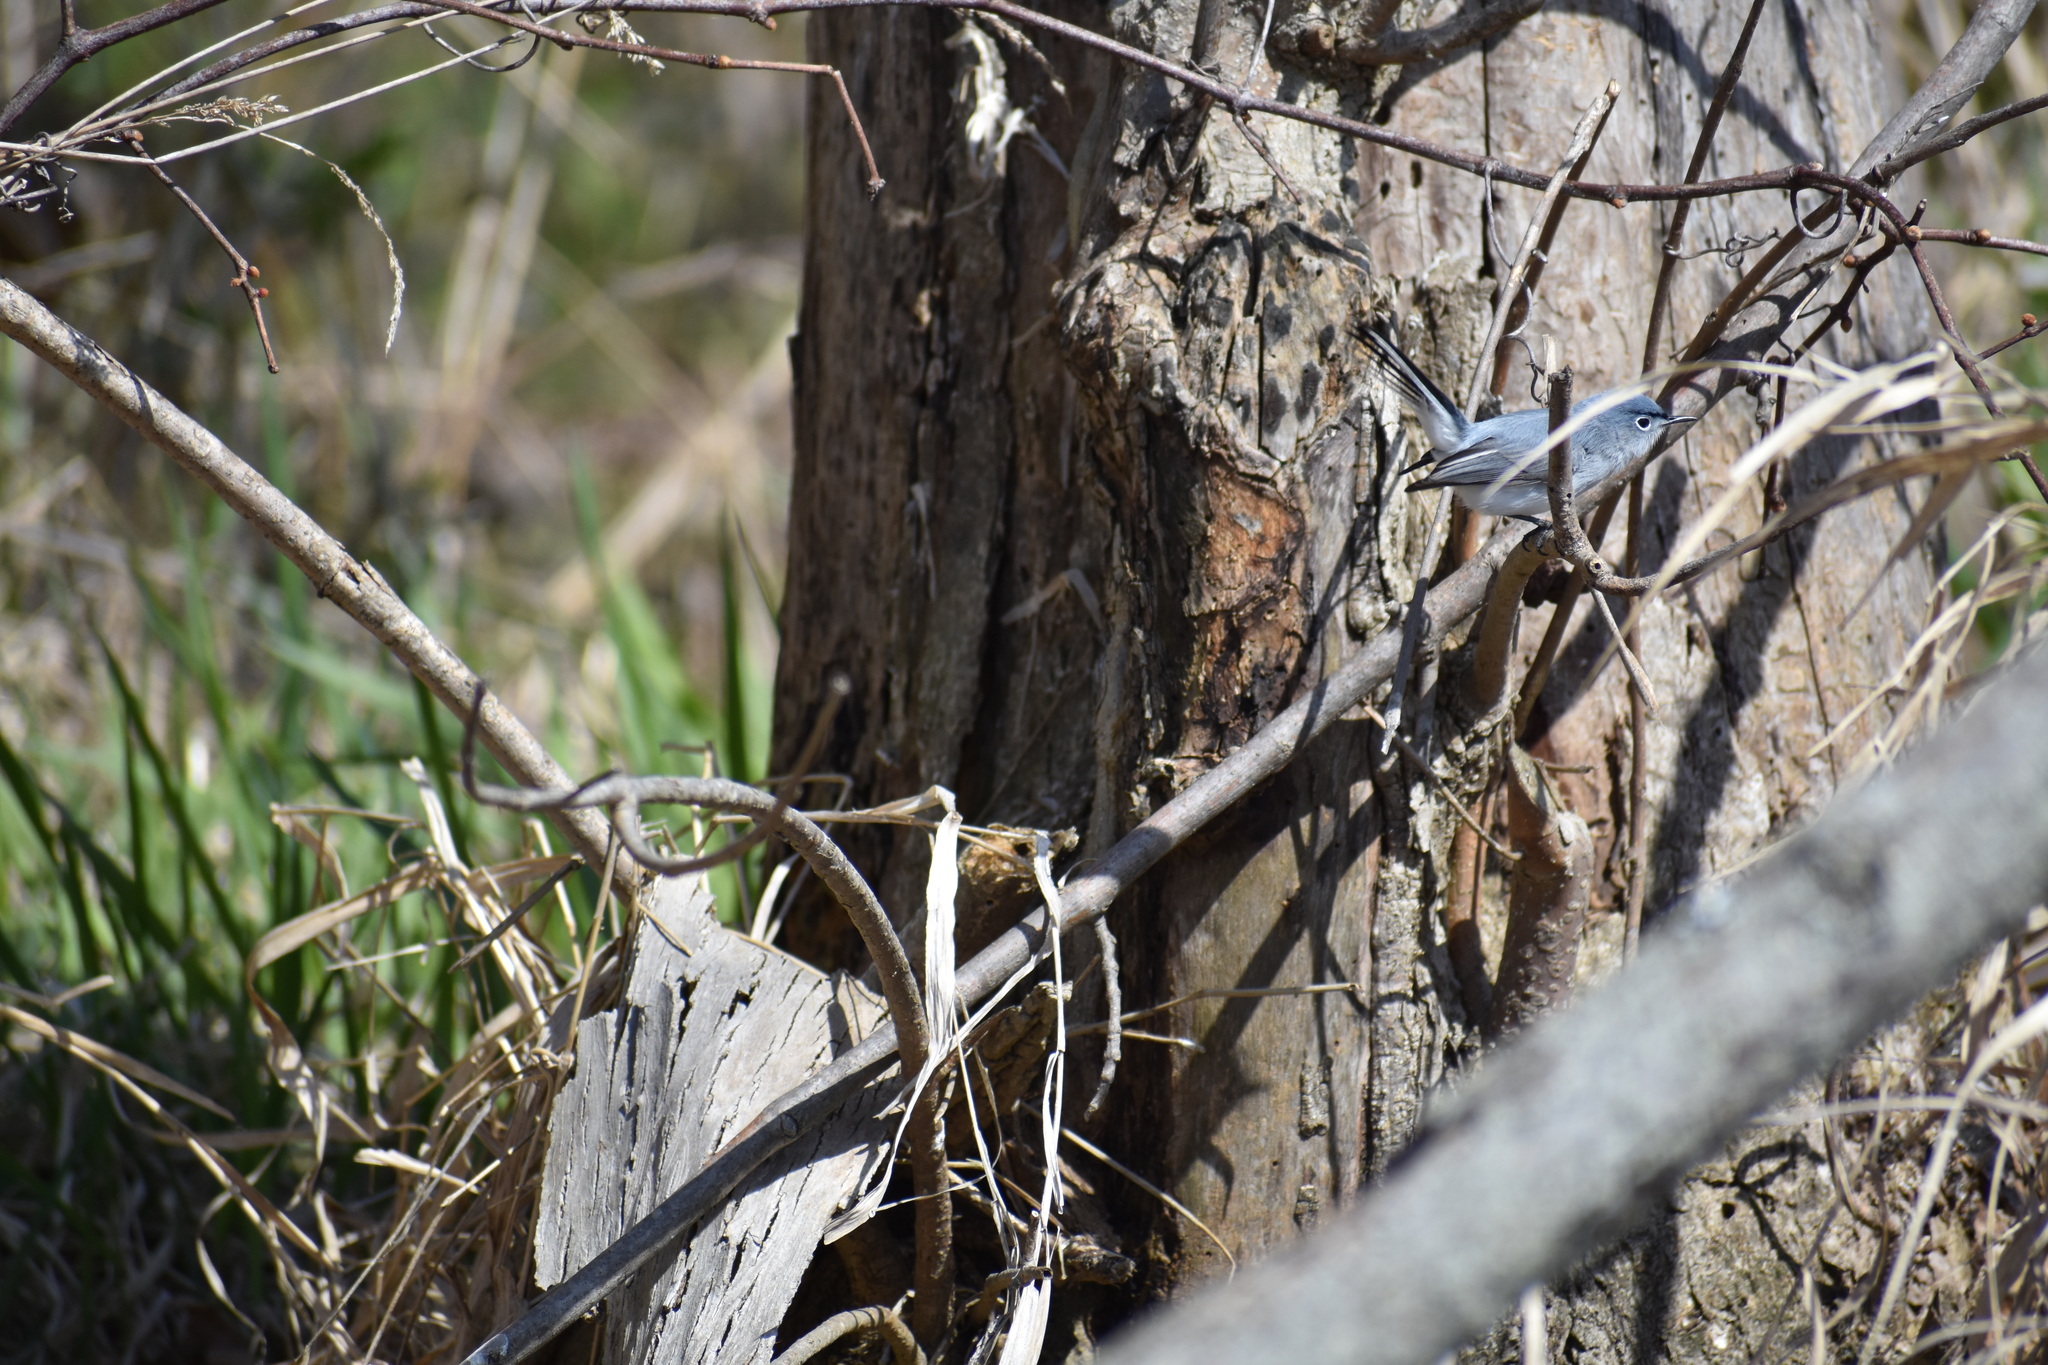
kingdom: Animalia
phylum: Chordata
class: Aves
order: Passeriformes
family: Polioptilidae
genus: Polioptila
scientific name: Polioptila caerulea
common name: Blue-gray gnatcatcher
